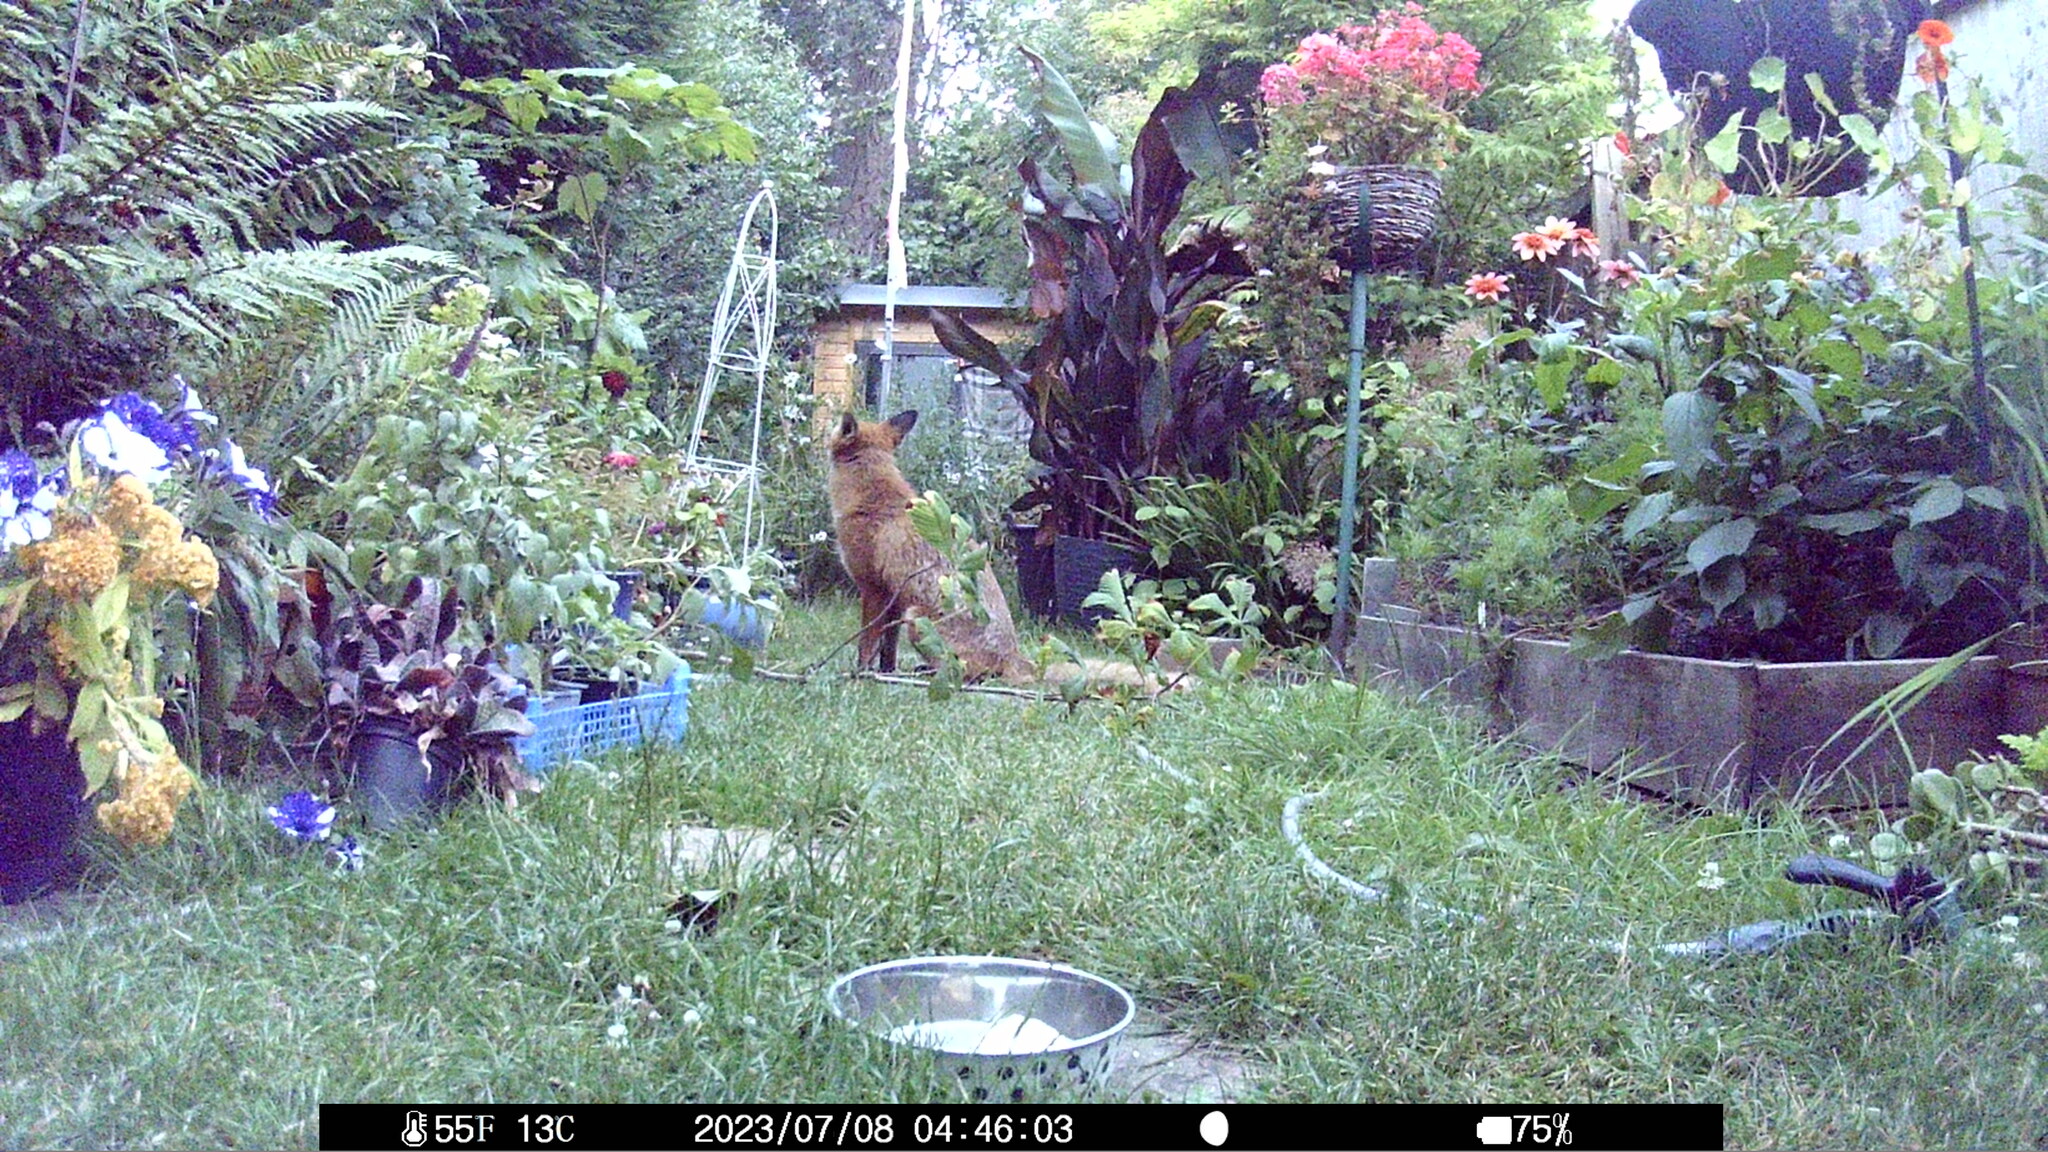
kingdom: Animalia
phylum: Chordata
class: Mammalia
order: Carnivora
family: Canidae
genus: Vulpes
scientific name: Vulpes vulpes
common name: Red fox
